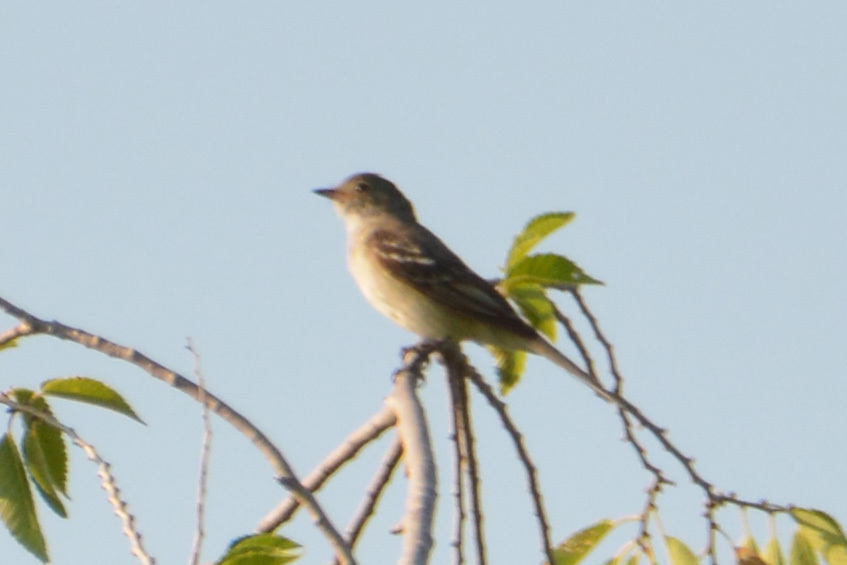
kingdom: Animalia
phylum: Chordata
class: Aves
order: Passeriformes
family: Tyrannidae
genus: Elaenia
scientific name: Elaenia parvirostris
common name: Small-billed elaenia
